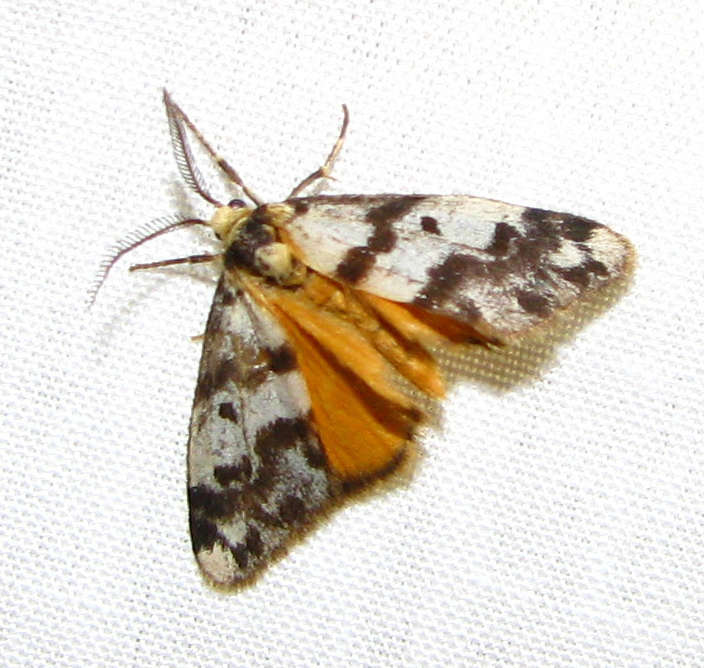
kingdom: Animalia
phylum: Arthropoda
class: Insecta
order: Lepidoptera
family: Erebidae
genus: Anestia
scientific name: Anestia
